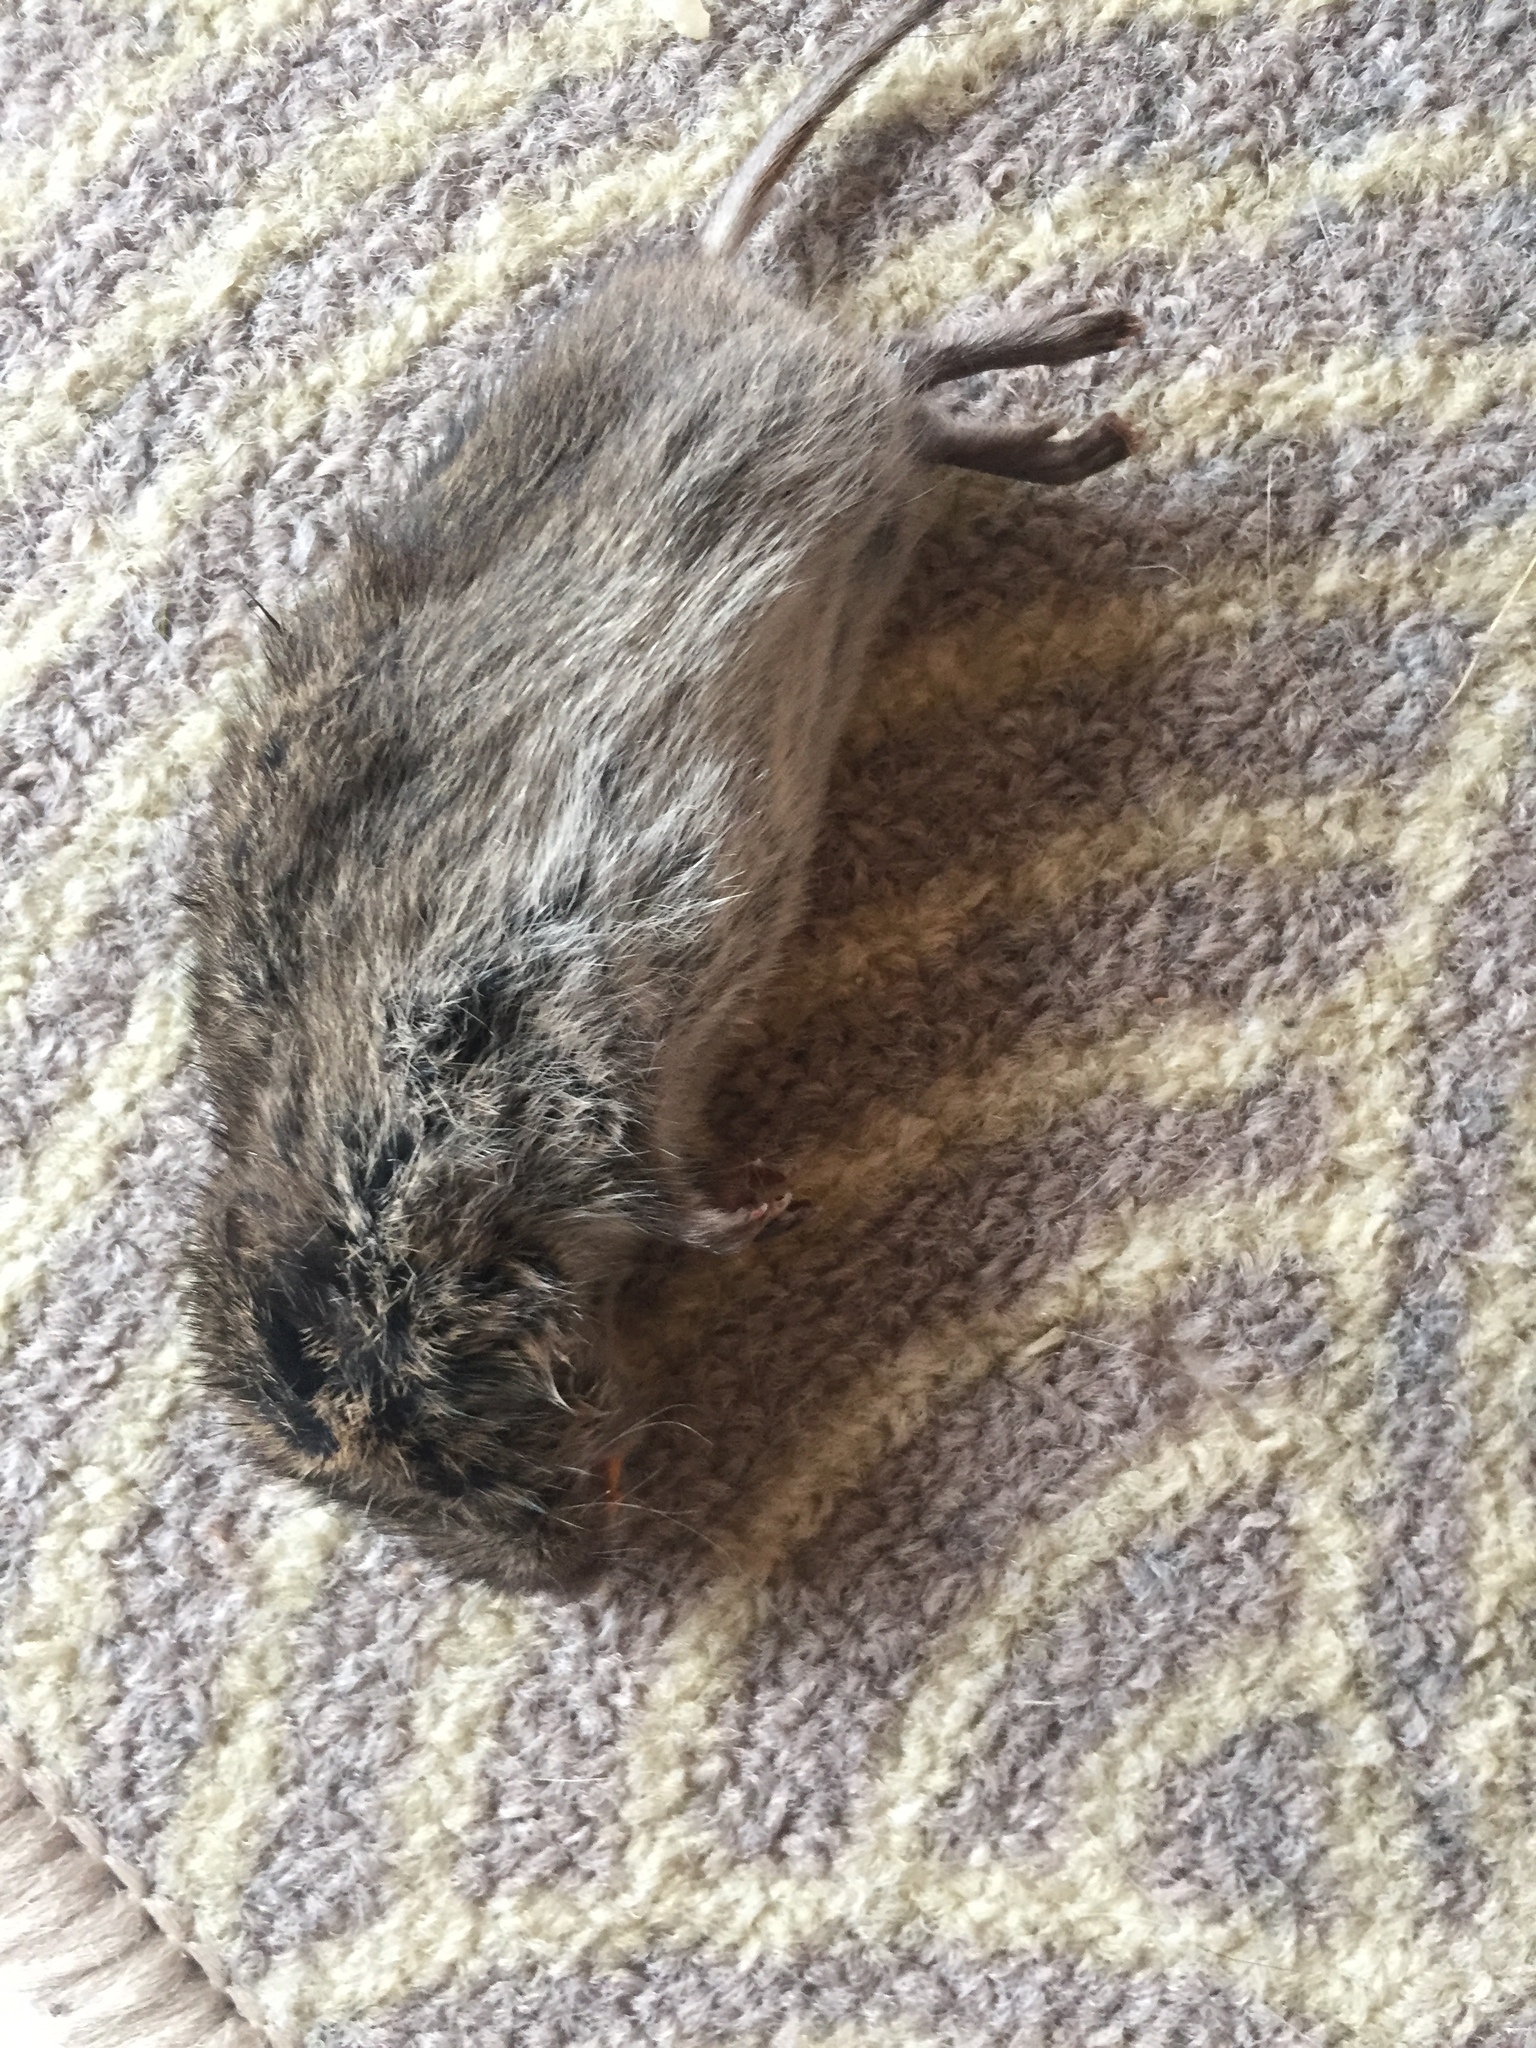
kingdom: Animalia
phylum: Chordata
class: Mammalia
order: Rodentia
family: Cricetidae
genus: Microtus
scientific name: Microtus pennsylvanicus
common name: Meadow vole
